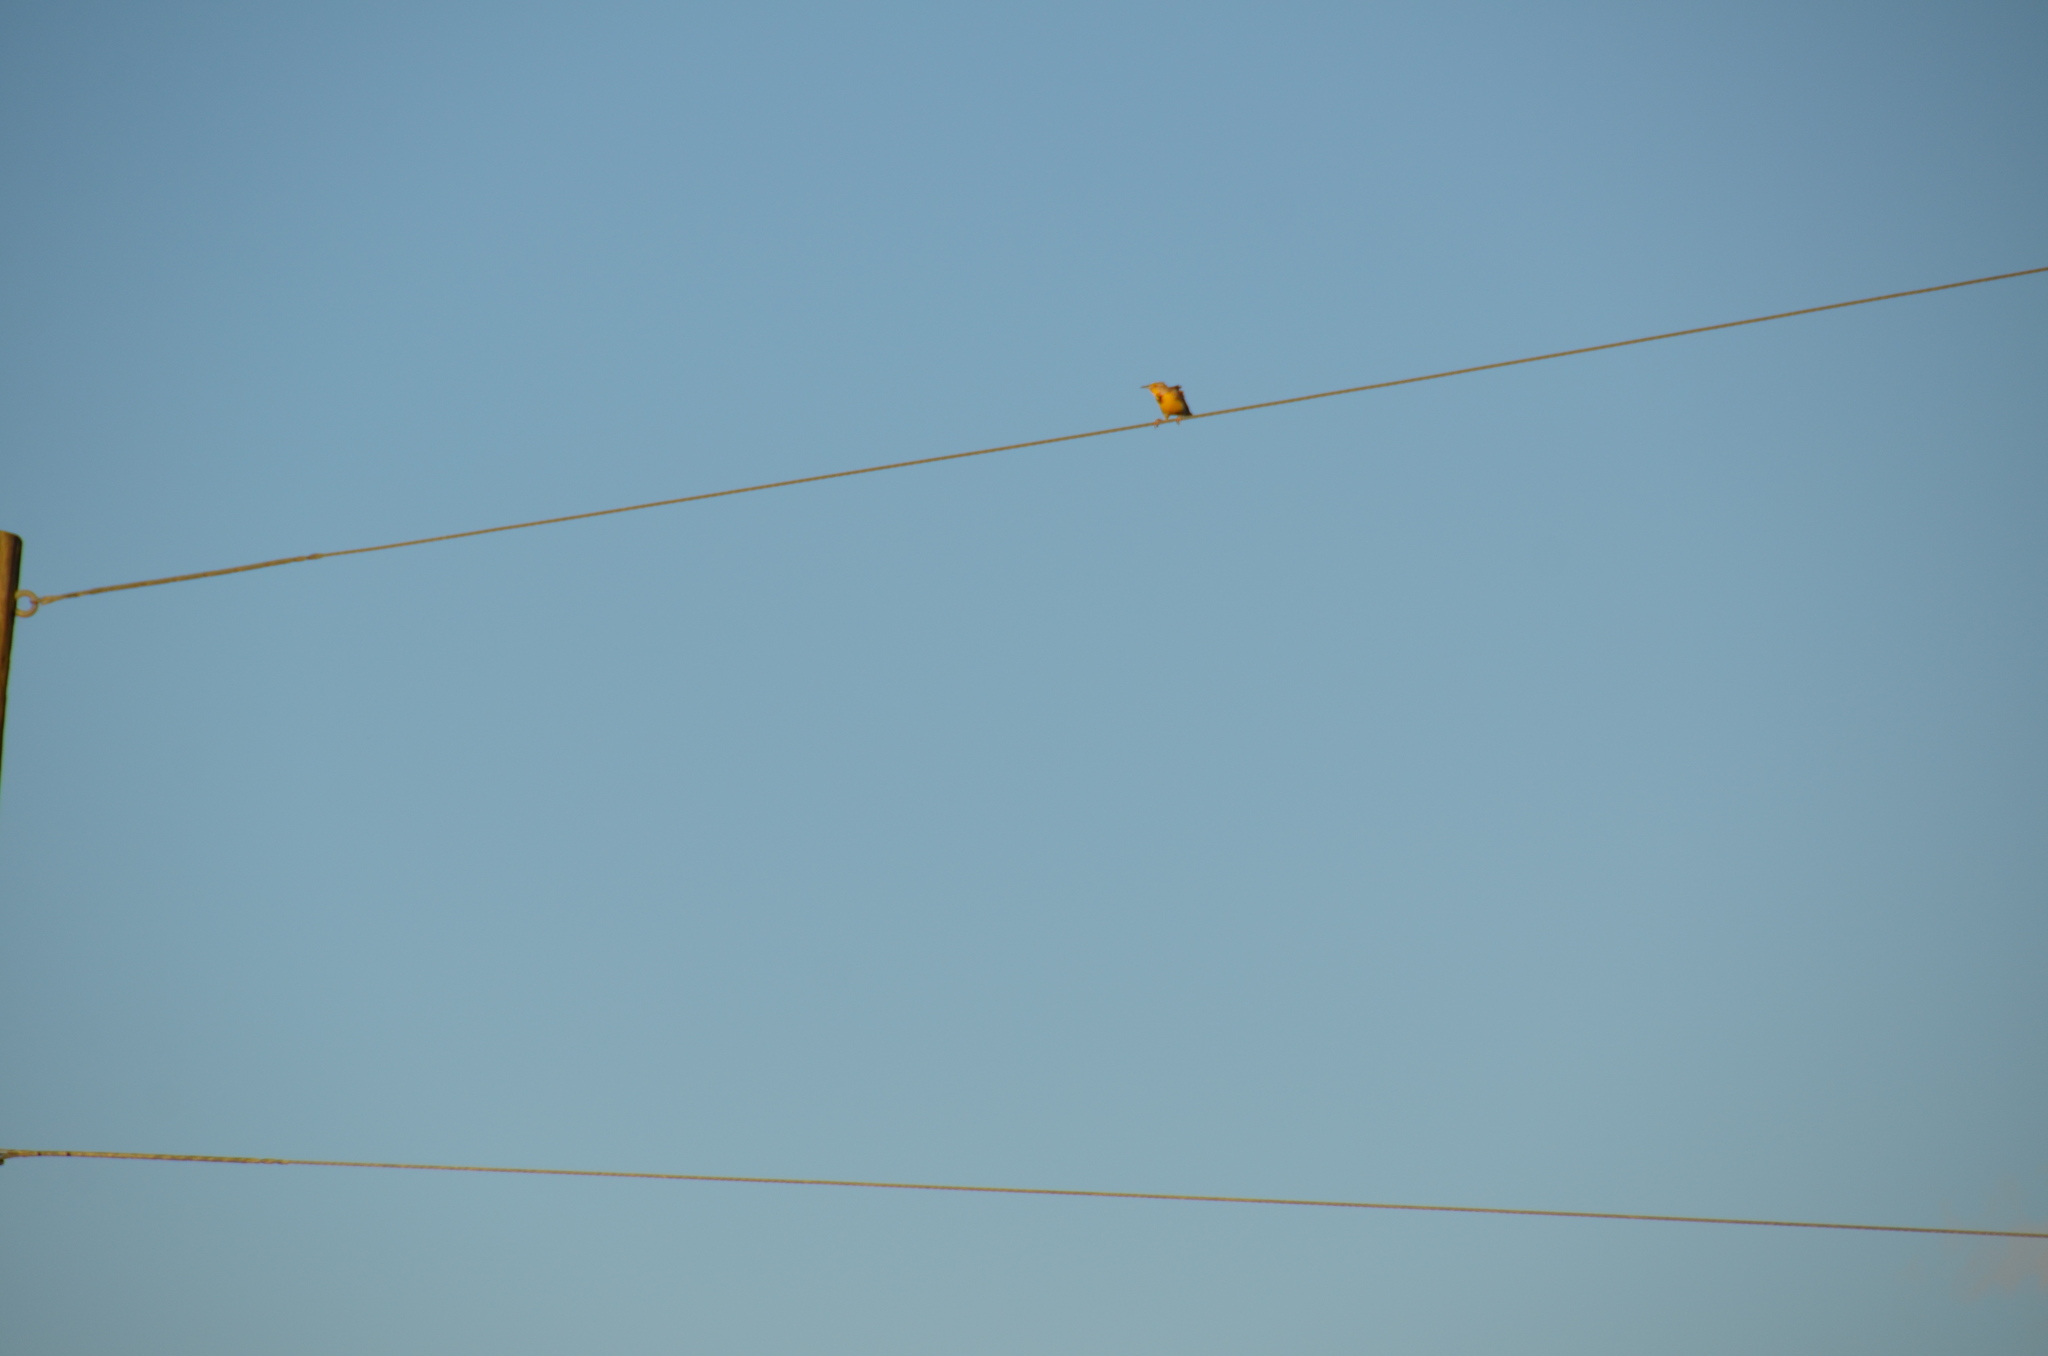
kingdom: Animalia
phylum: Chordata
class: Aves
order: Passeriformes
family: Icteridae
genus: Sturnella
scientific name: Sturnella neglecta
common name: Western meadowlark
